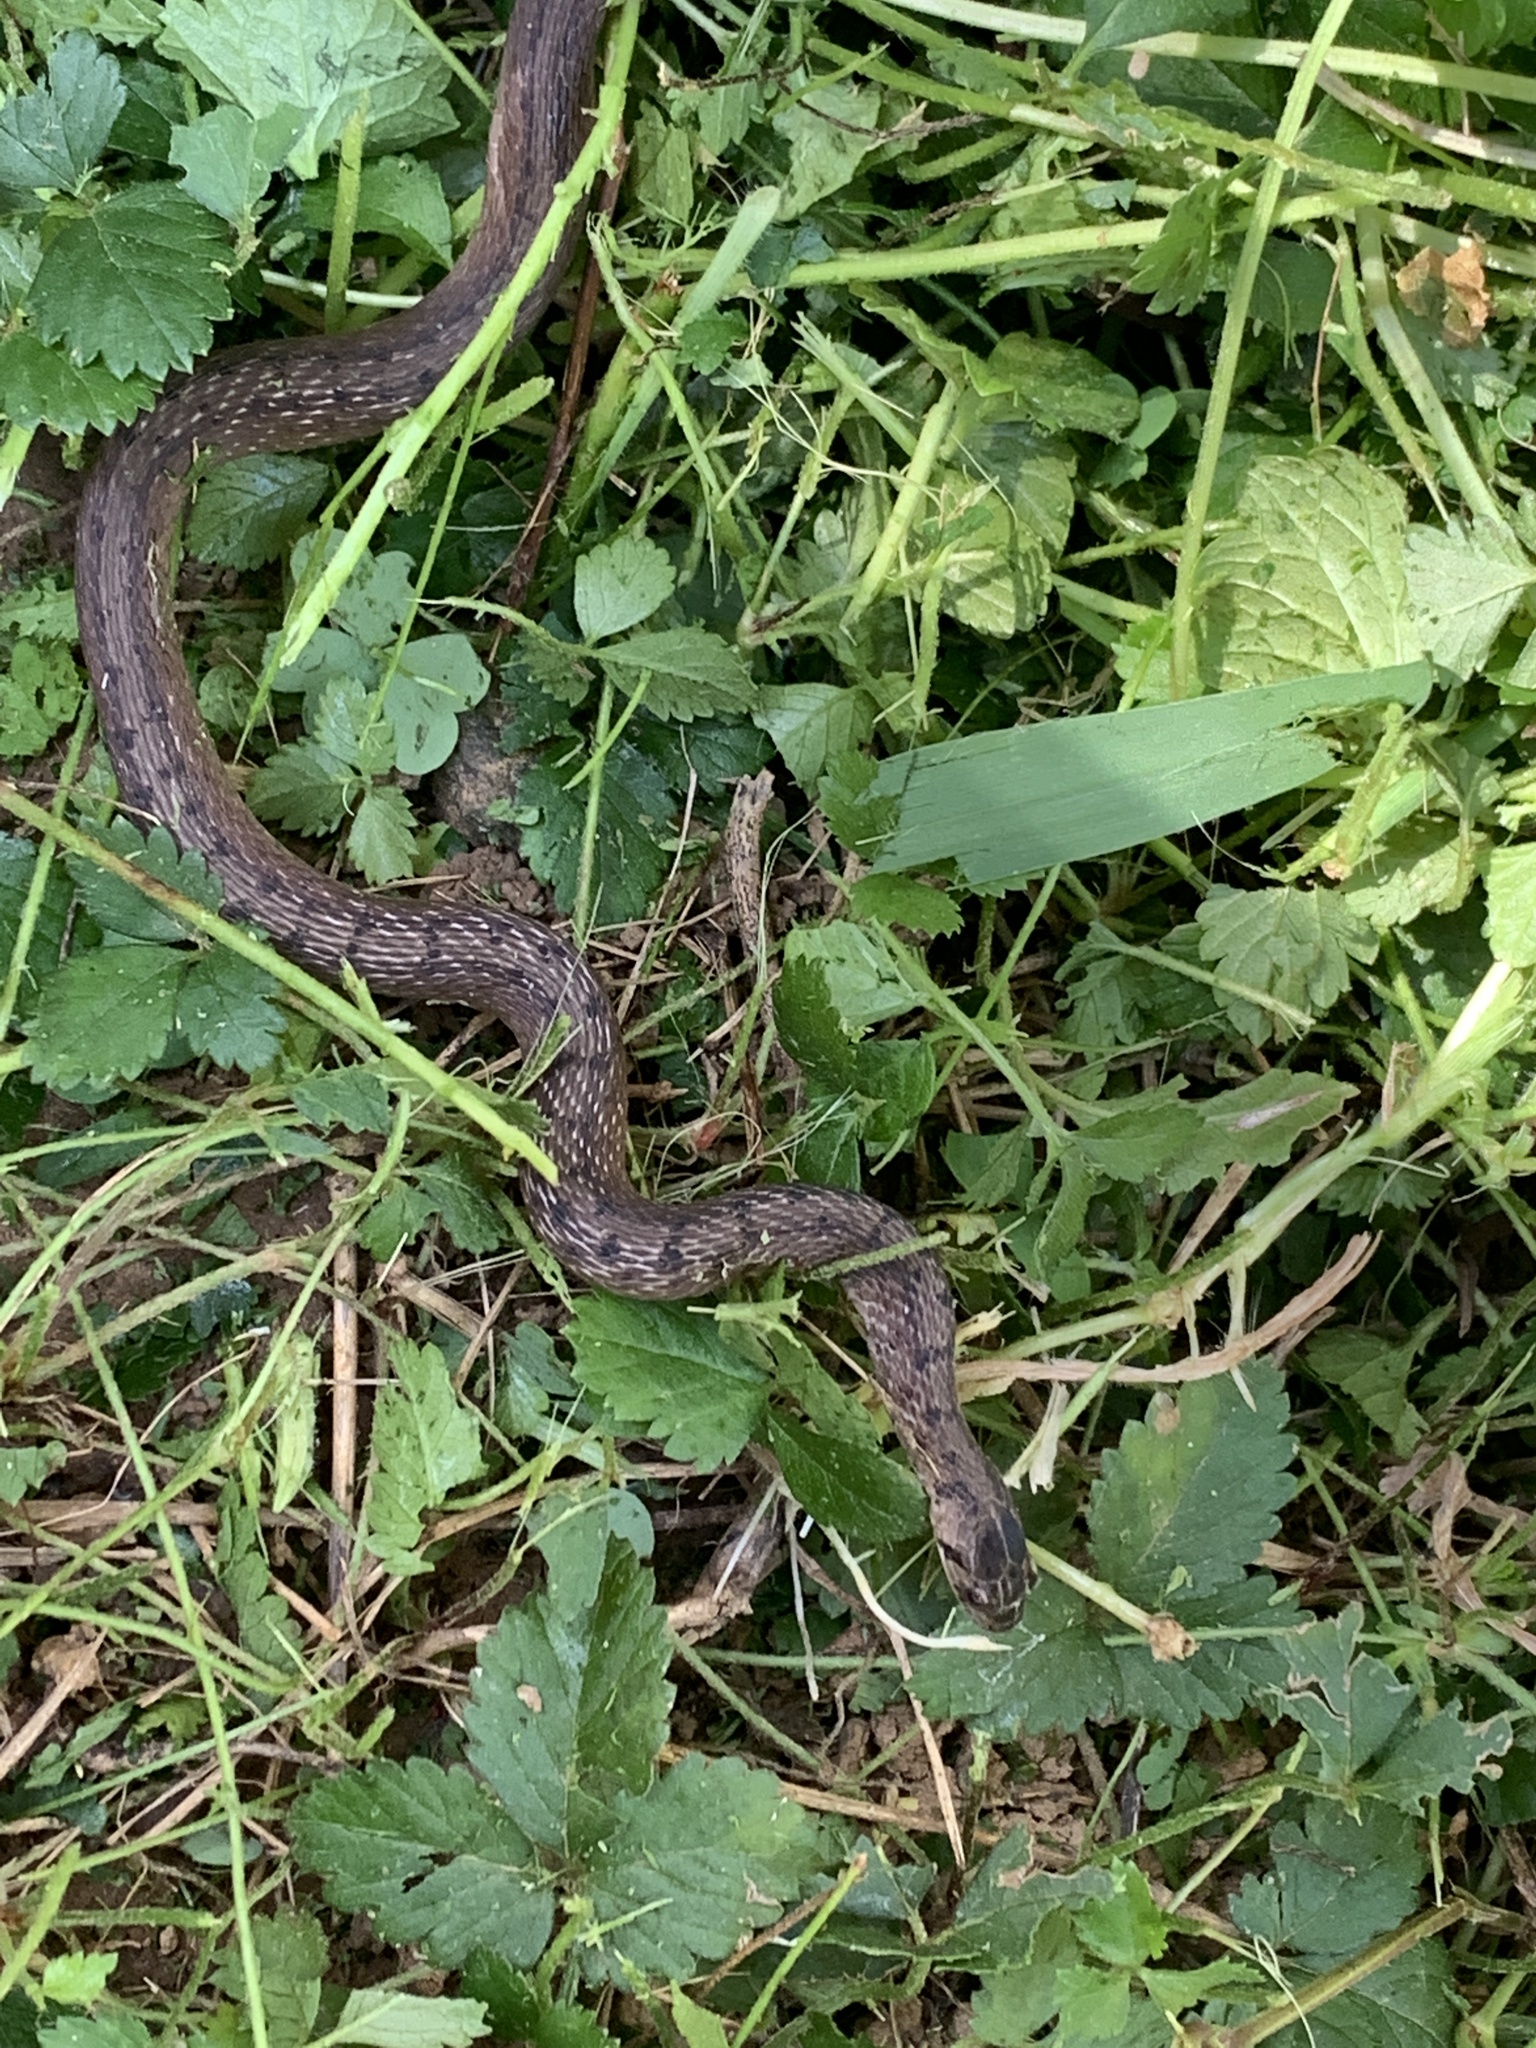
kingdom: Animalia
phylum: Chordata
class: Squamata
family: Colubridae
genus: Storeria
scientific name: Storeria dekayi
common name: (dekay’s) brown snake
